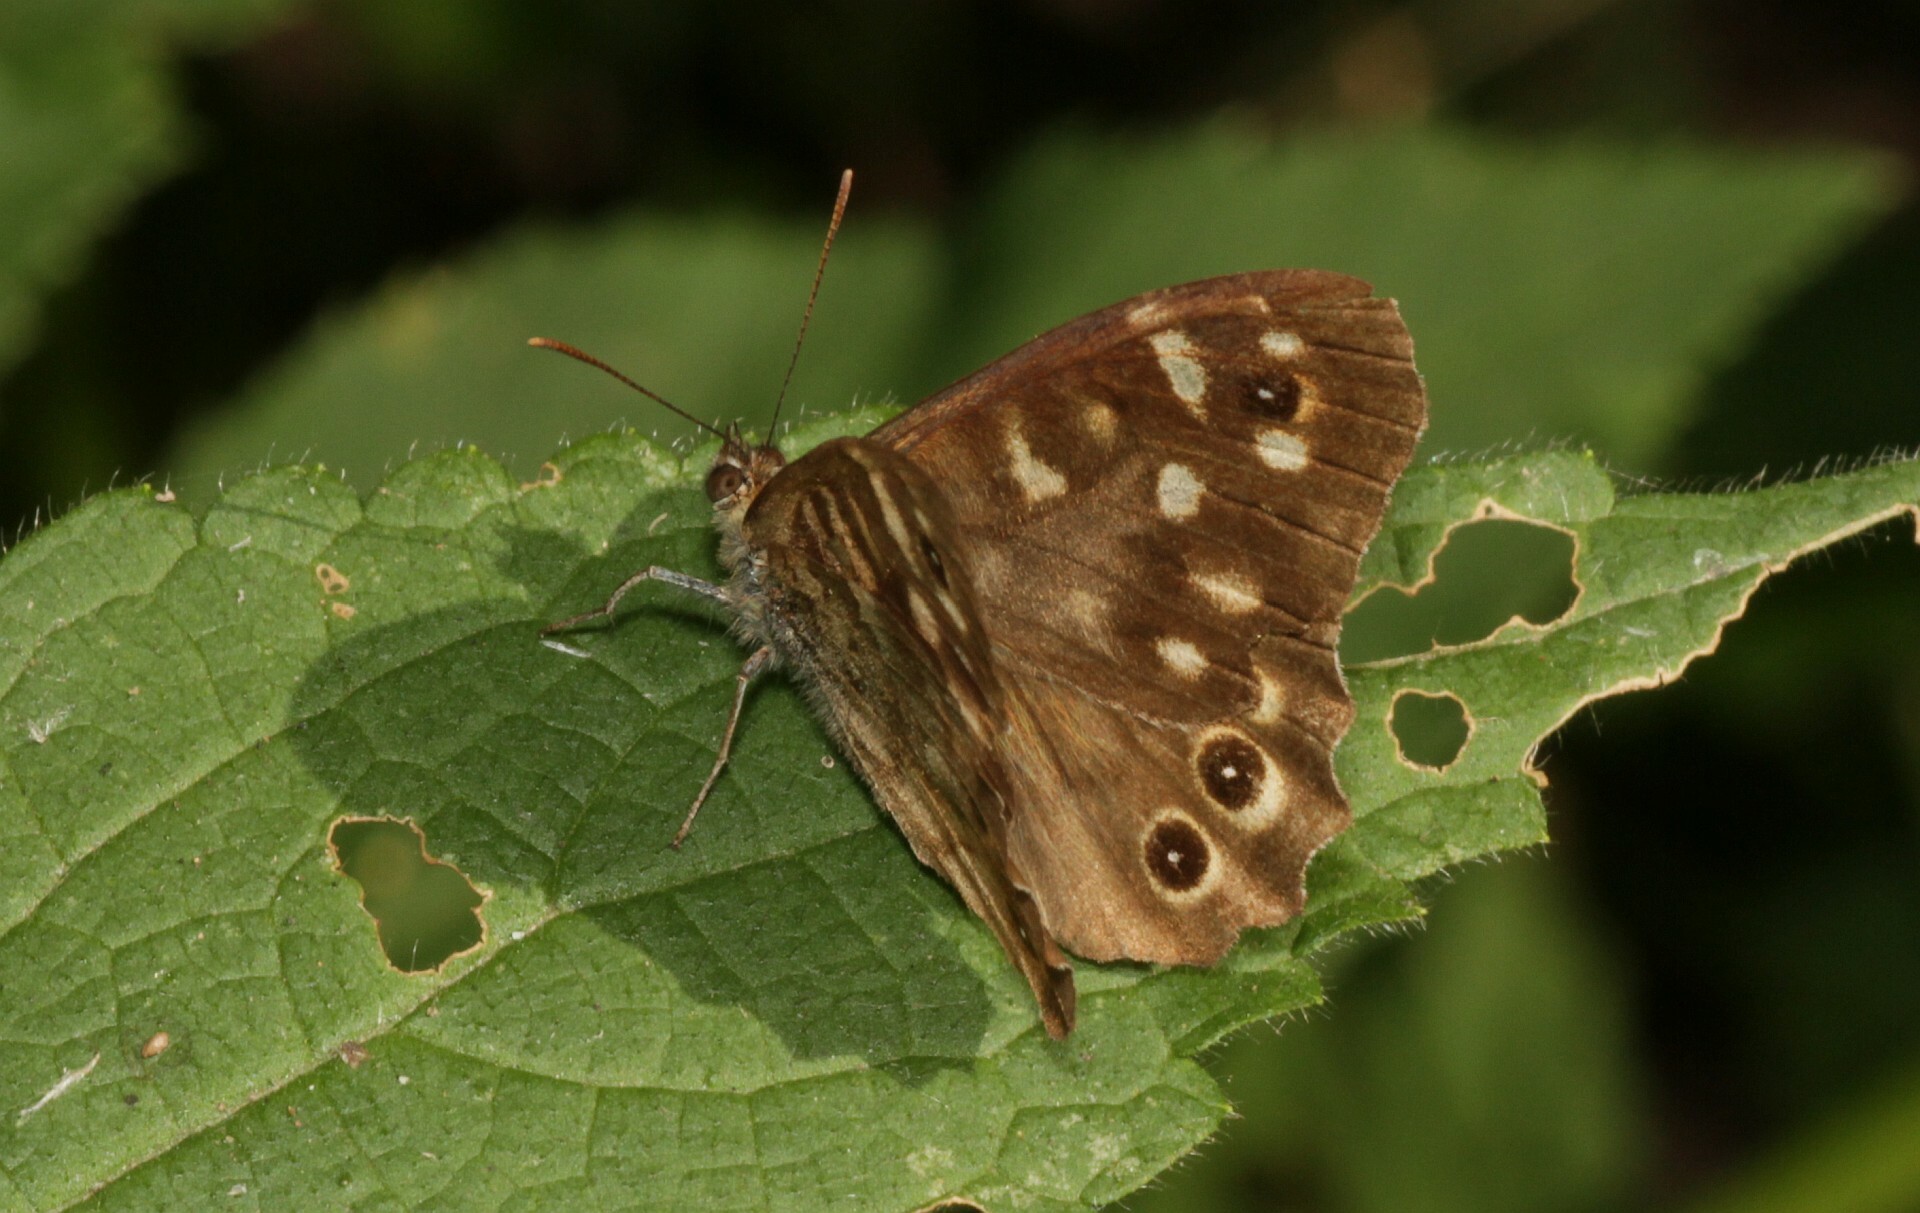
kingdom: Animalia
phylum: Arthropoda
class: Insecta
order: Lepidoptera
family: Nymphalidae
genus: Pararge
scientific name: Pararge aegeria
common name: Speckled wood
